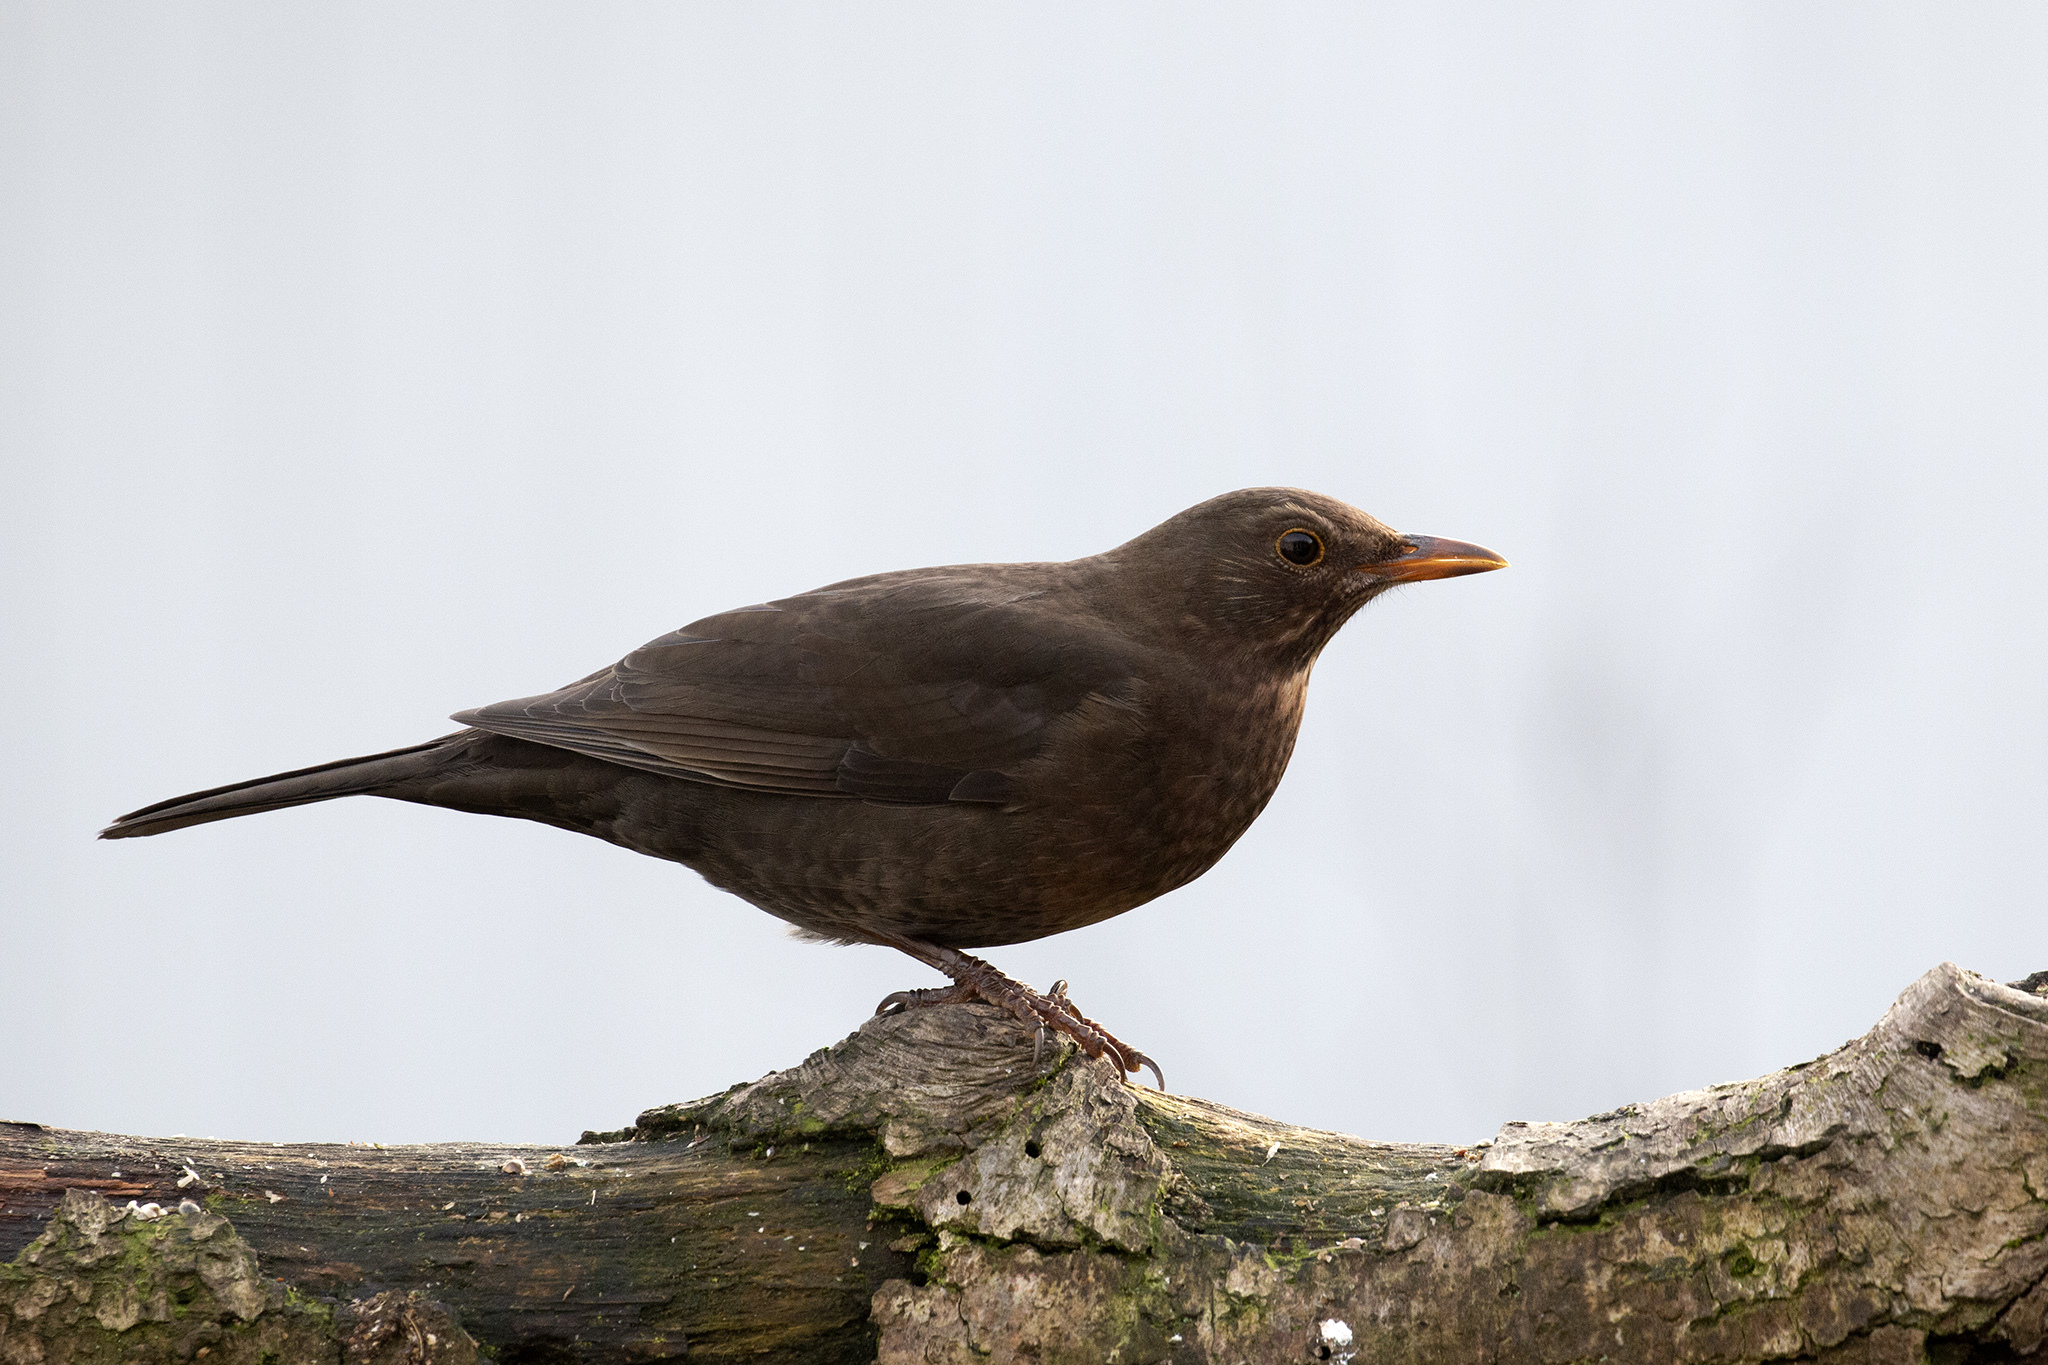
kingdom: Animalia
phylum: Chordata
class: Aves
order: Passeriformes
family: Turdidae
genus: Turdus
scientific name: Turdus merula
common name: Common blackbird
